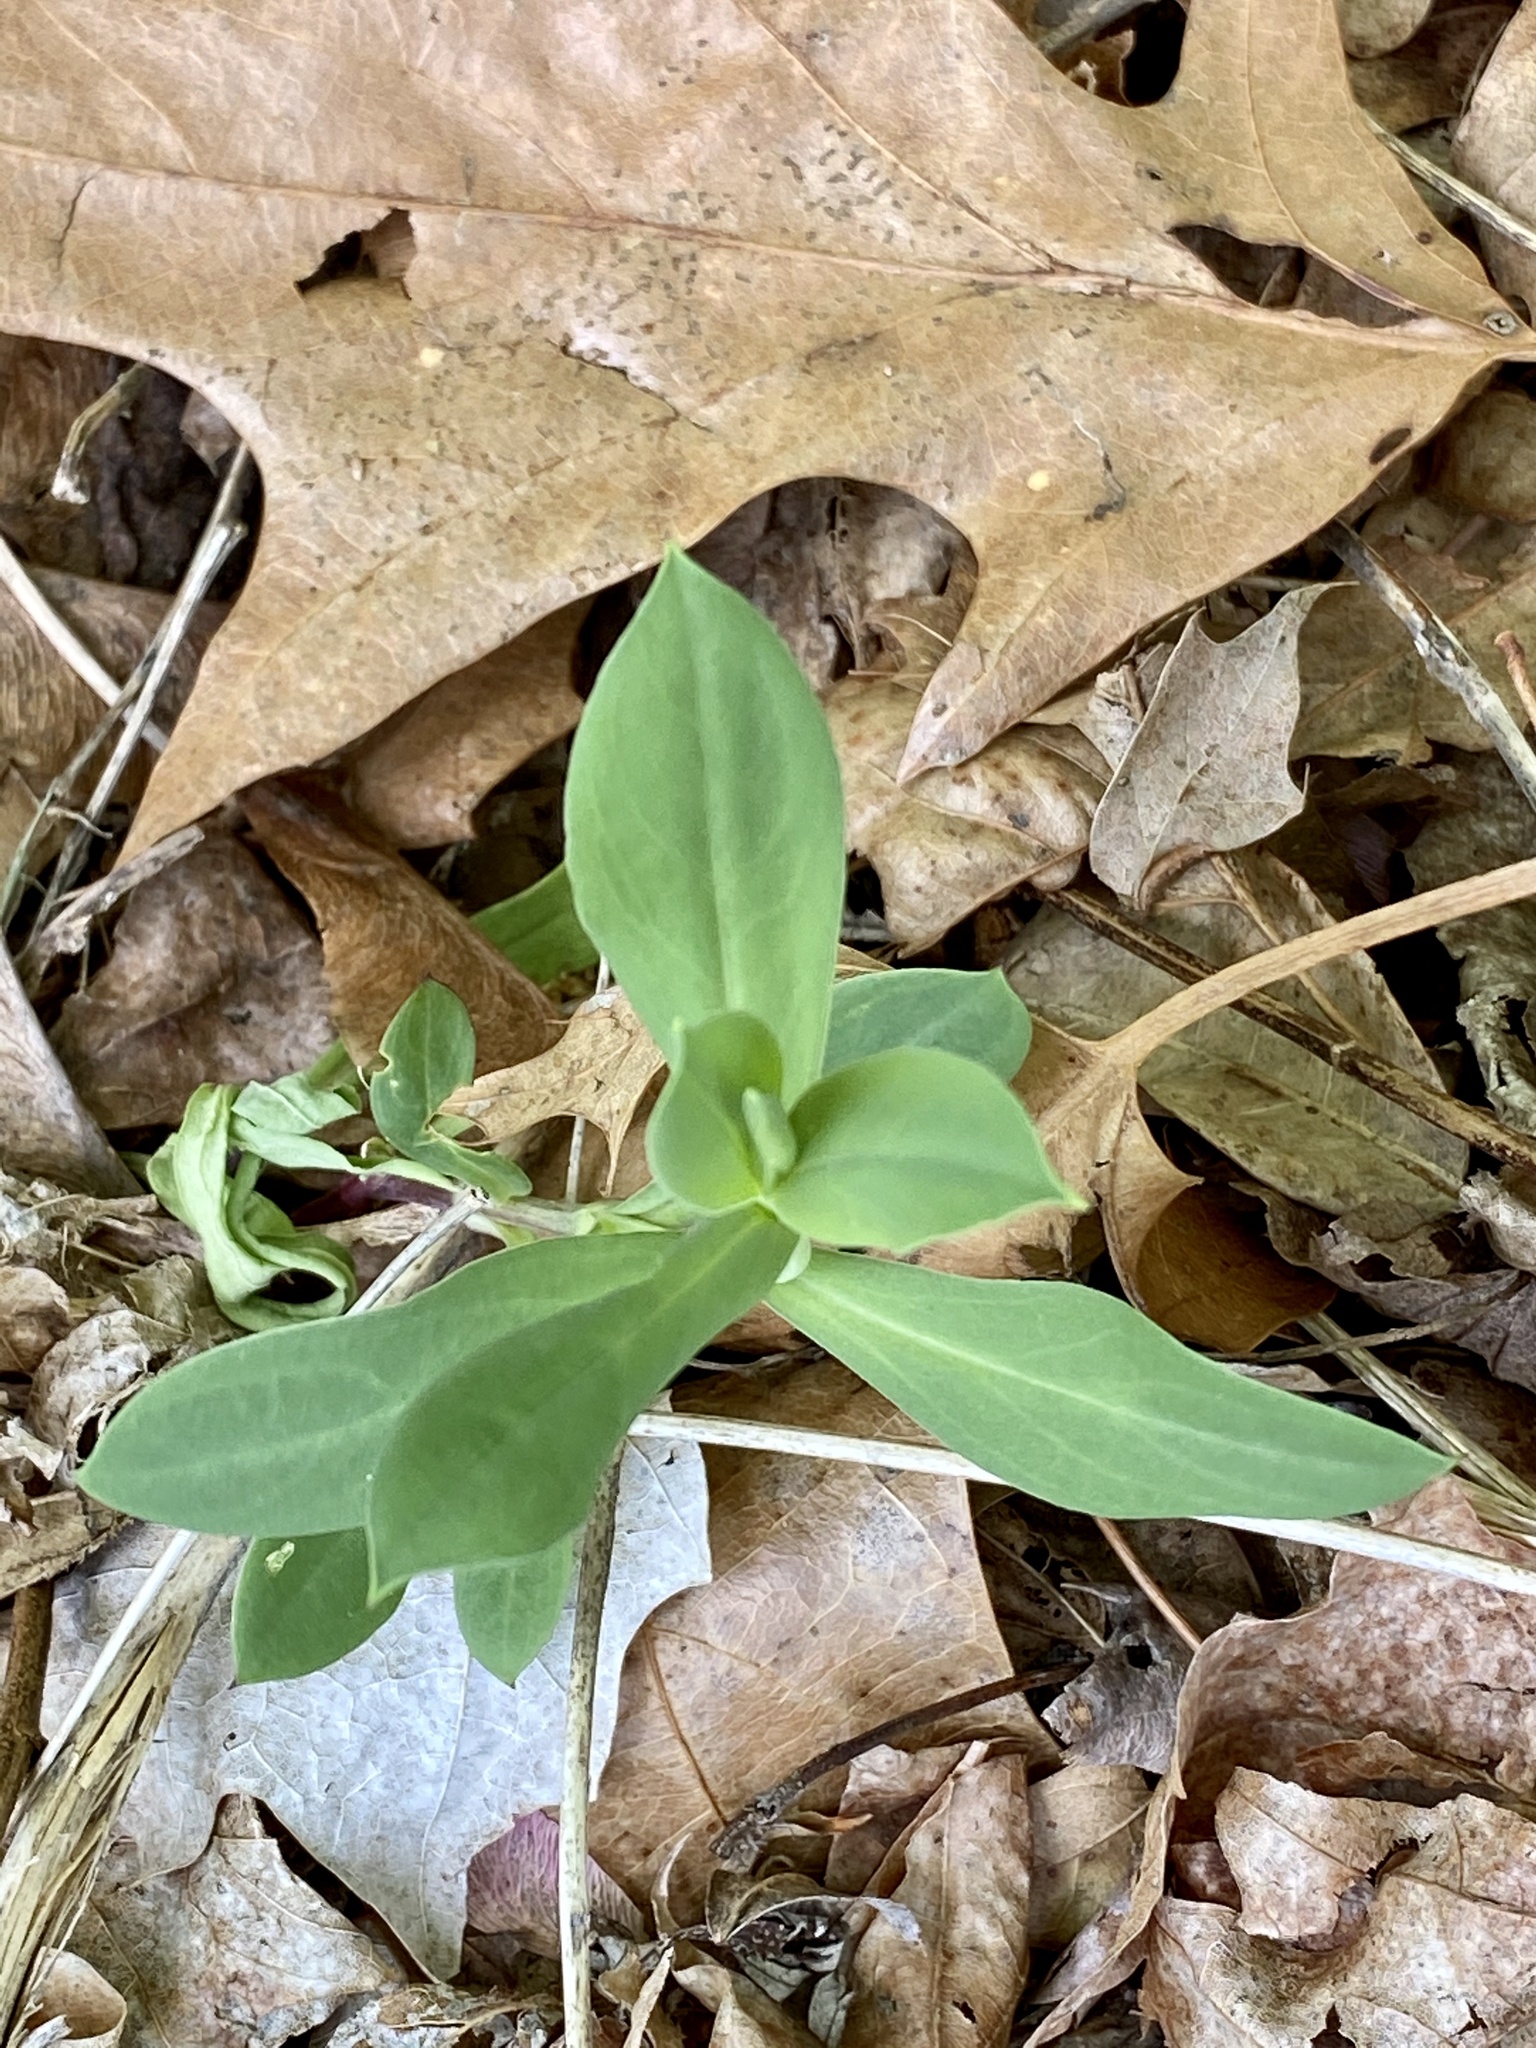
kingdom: Plantae
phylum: Tracheophyta
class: Magnoliopsida
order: Caryophyllales
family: Caryophyllaceae
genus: Silene
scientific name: Silene vulgaris
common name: Bladder campion
